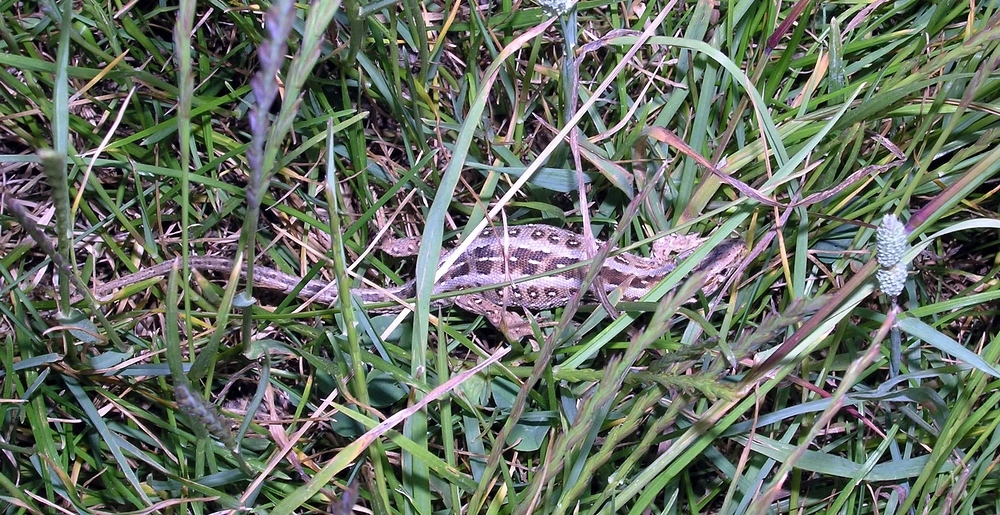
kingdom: Animalia
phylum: Chordata
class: Squamata
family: Lacertidae
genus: Lacerta
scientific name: Lacerta agilis
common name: Sand lizard
